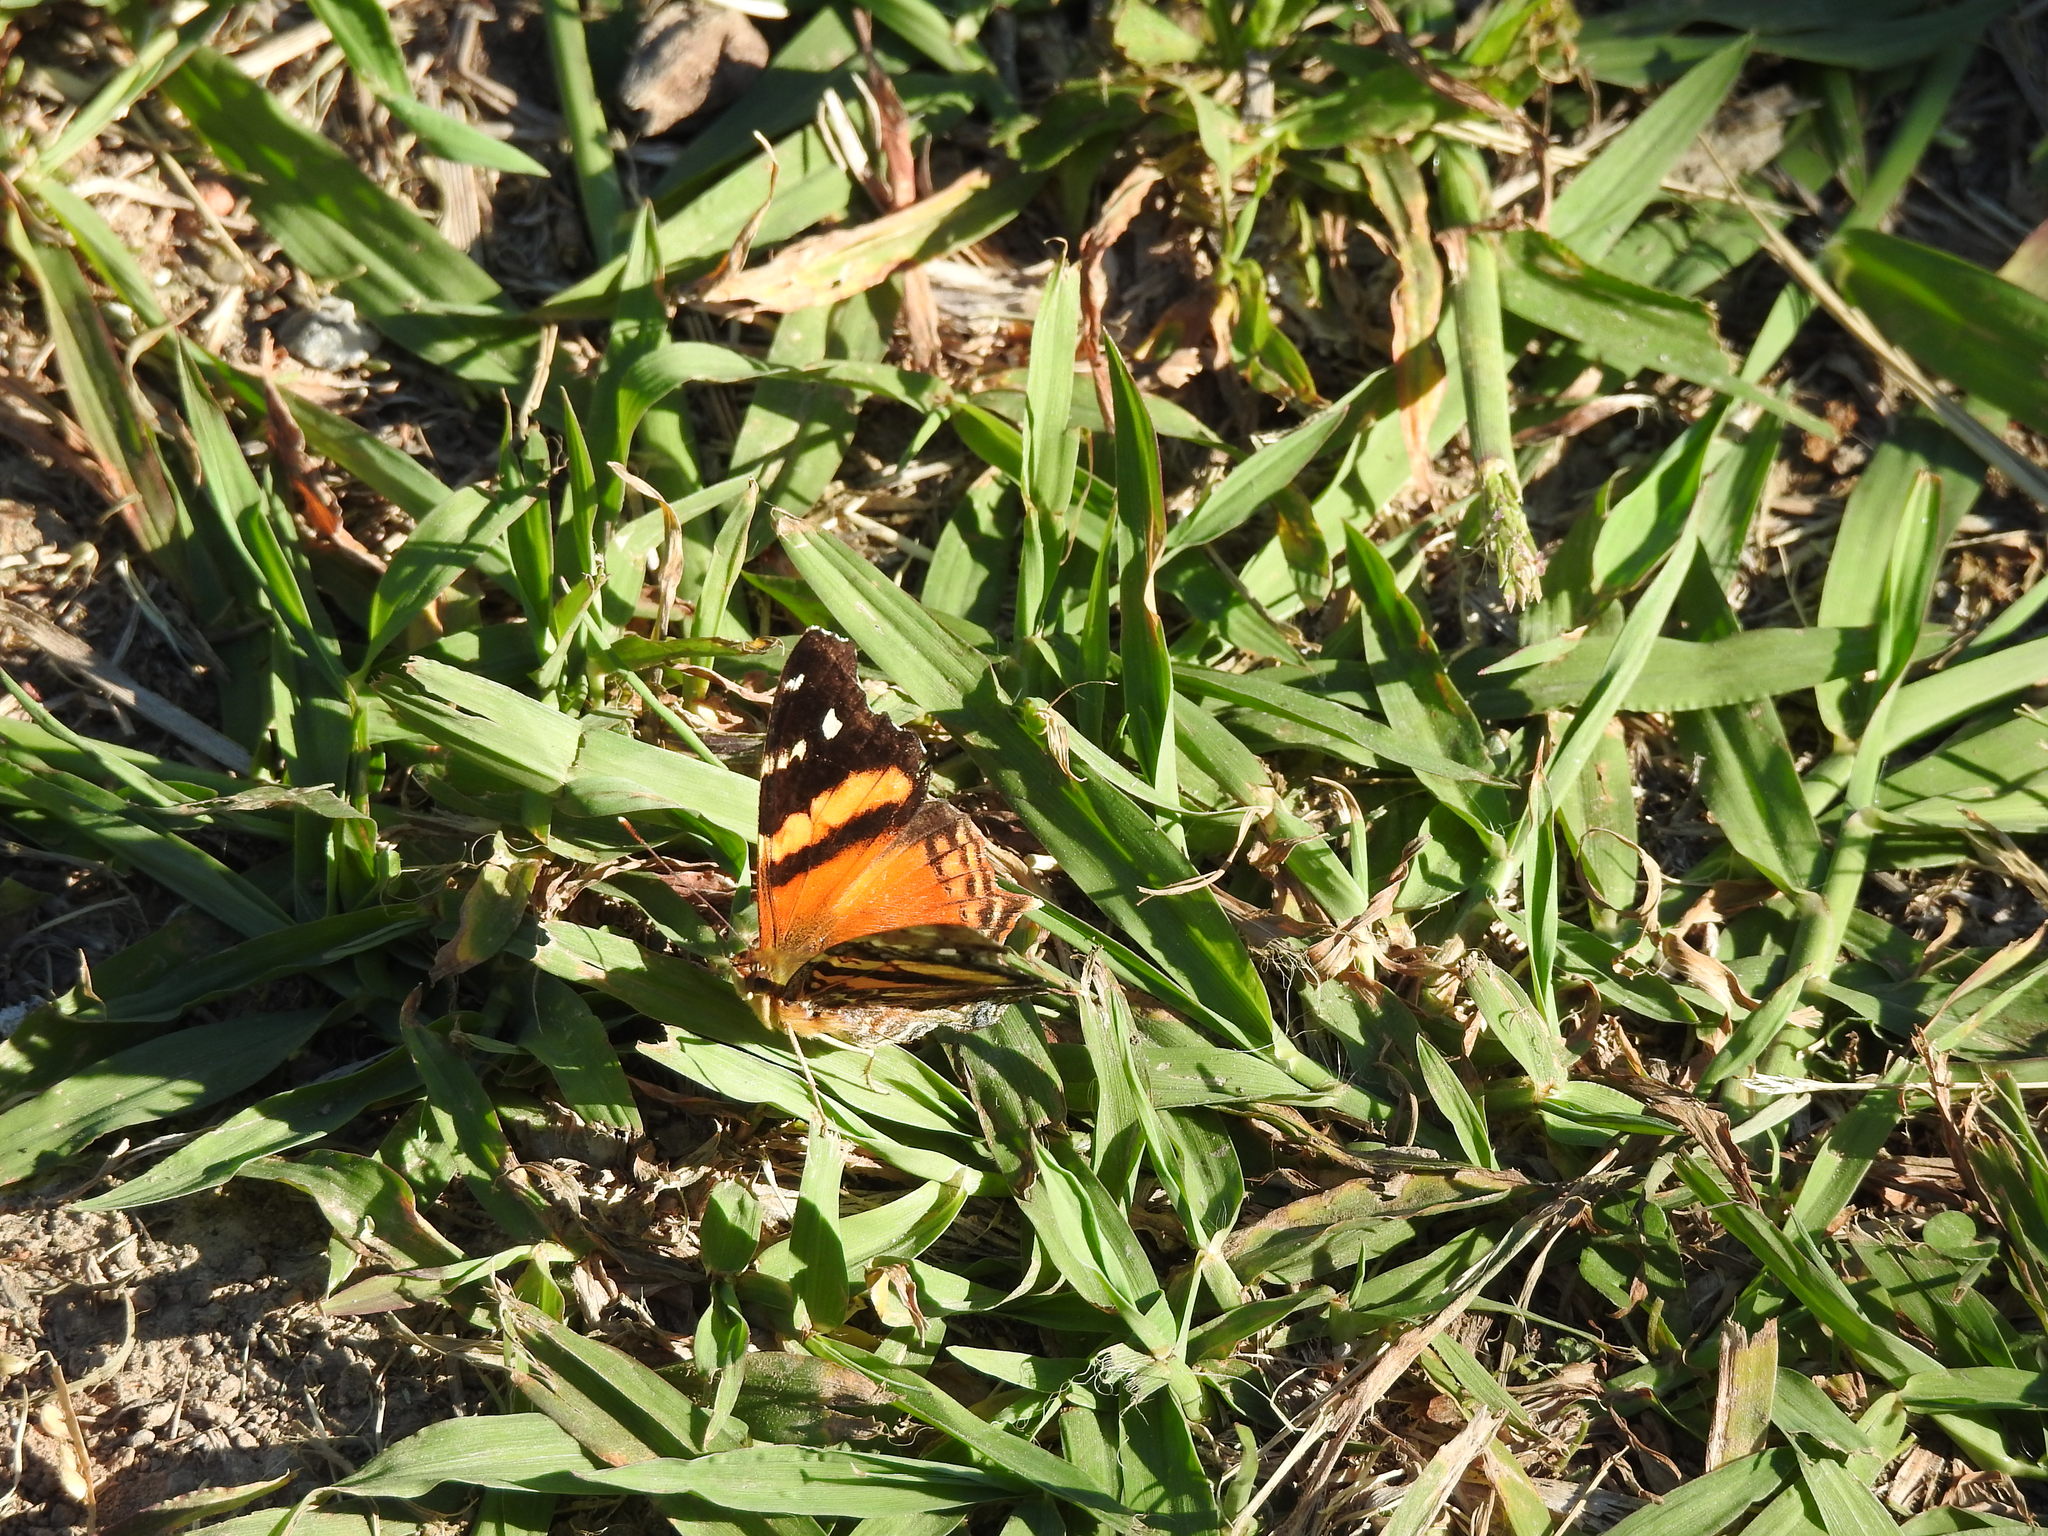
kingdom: Animalia
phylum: Arthropoda
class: Insecta
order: Lepidoptera
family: Nymphalidae
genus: Hypanartia
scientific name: Hypanartia bella
